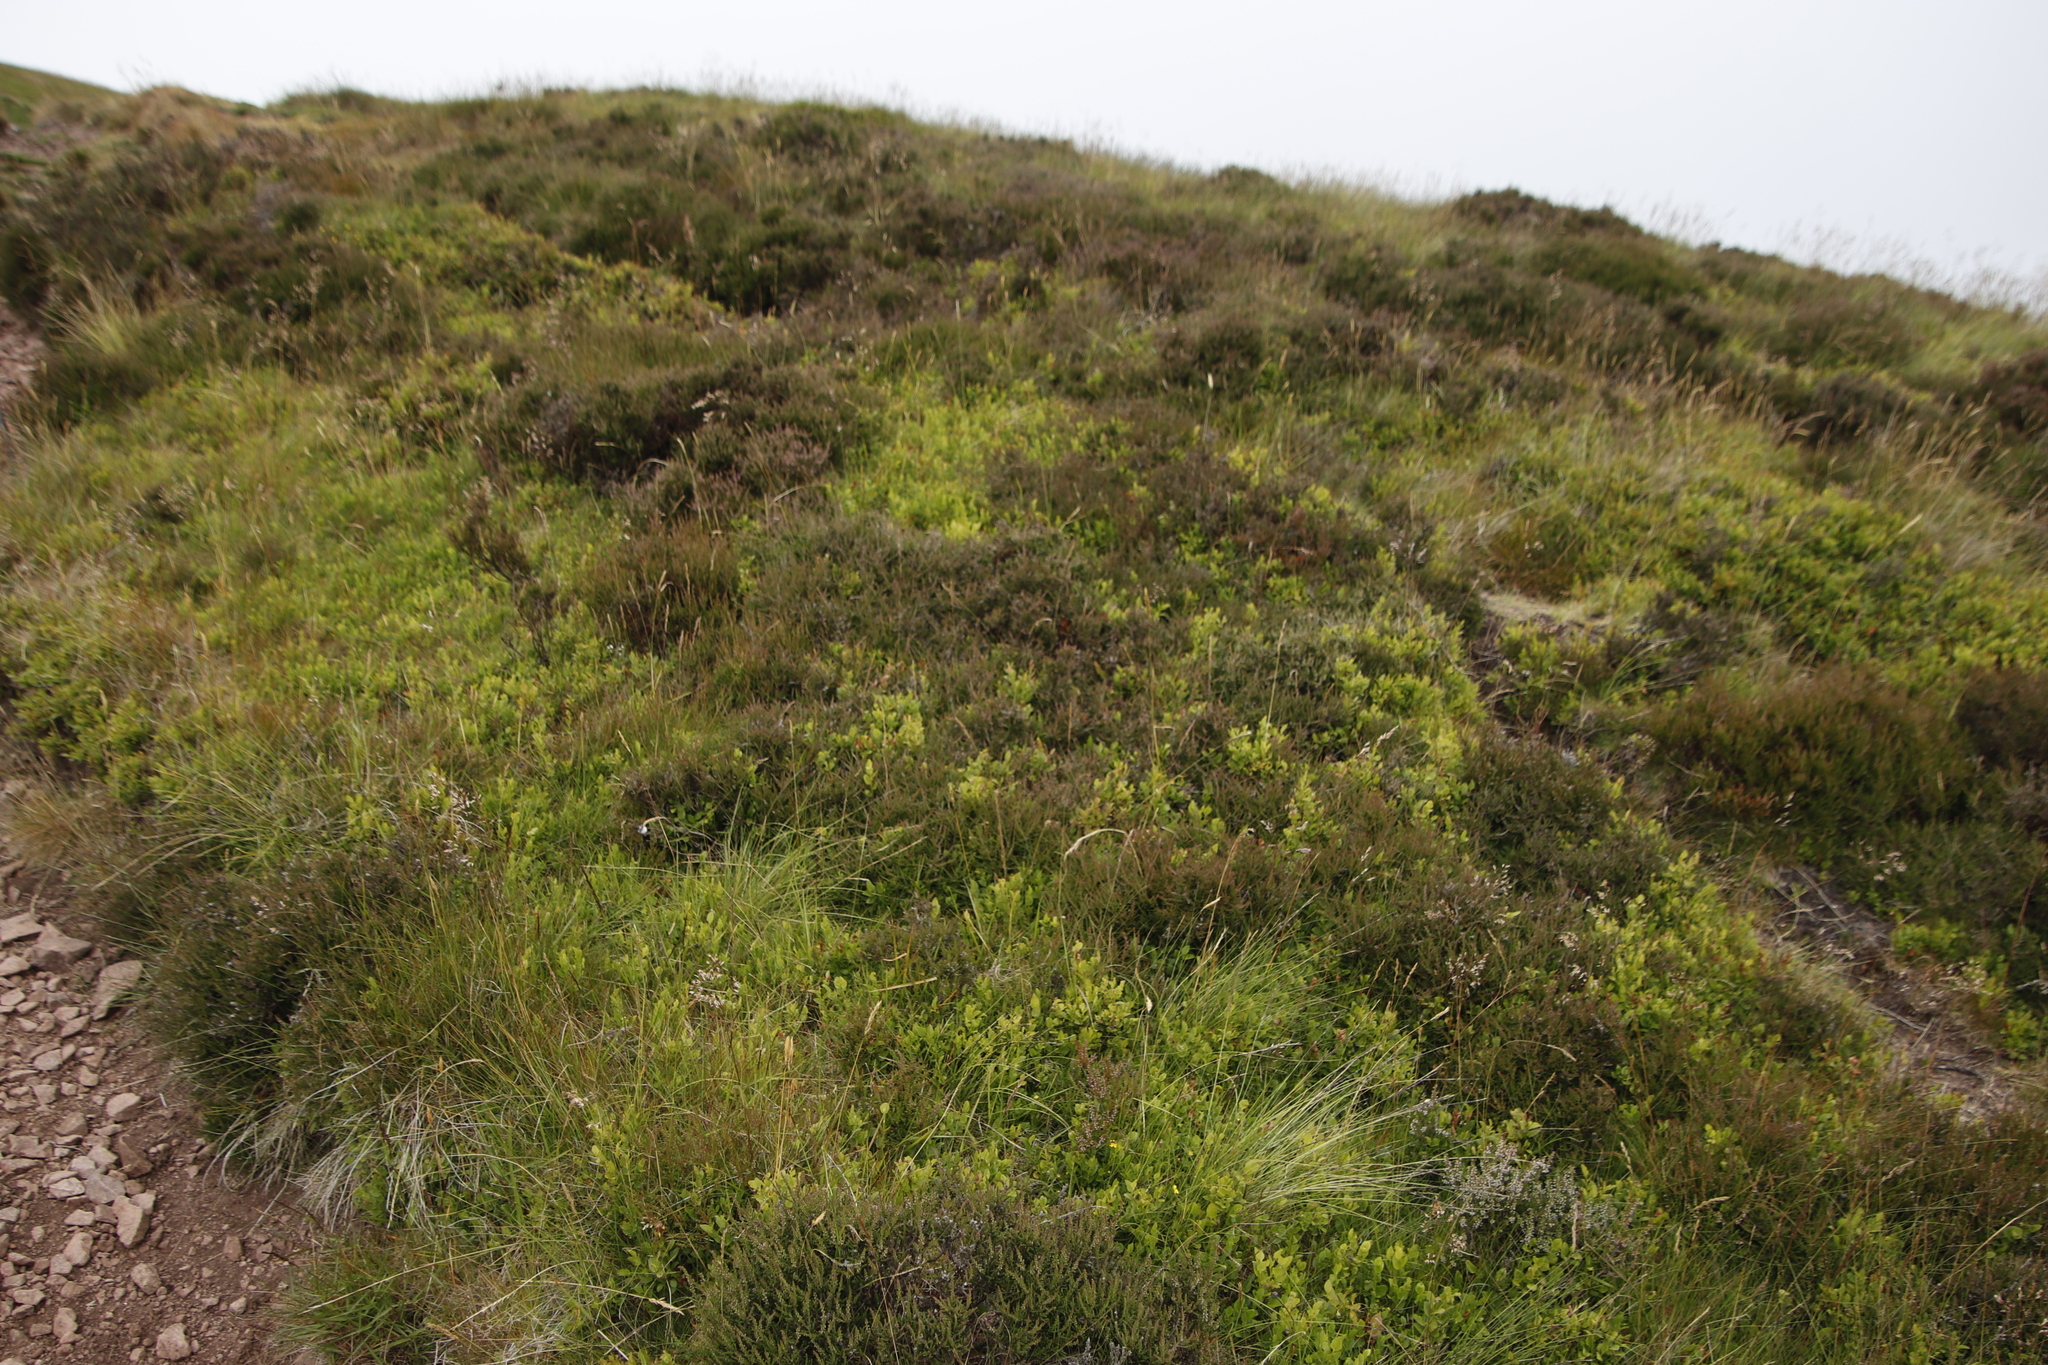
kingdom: Plantae
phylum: Tracheophyta
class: Magnoliopsida
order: Ericales
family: Ericaceae
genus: Calluna
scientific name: Calluna vulgaris
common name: Heather
